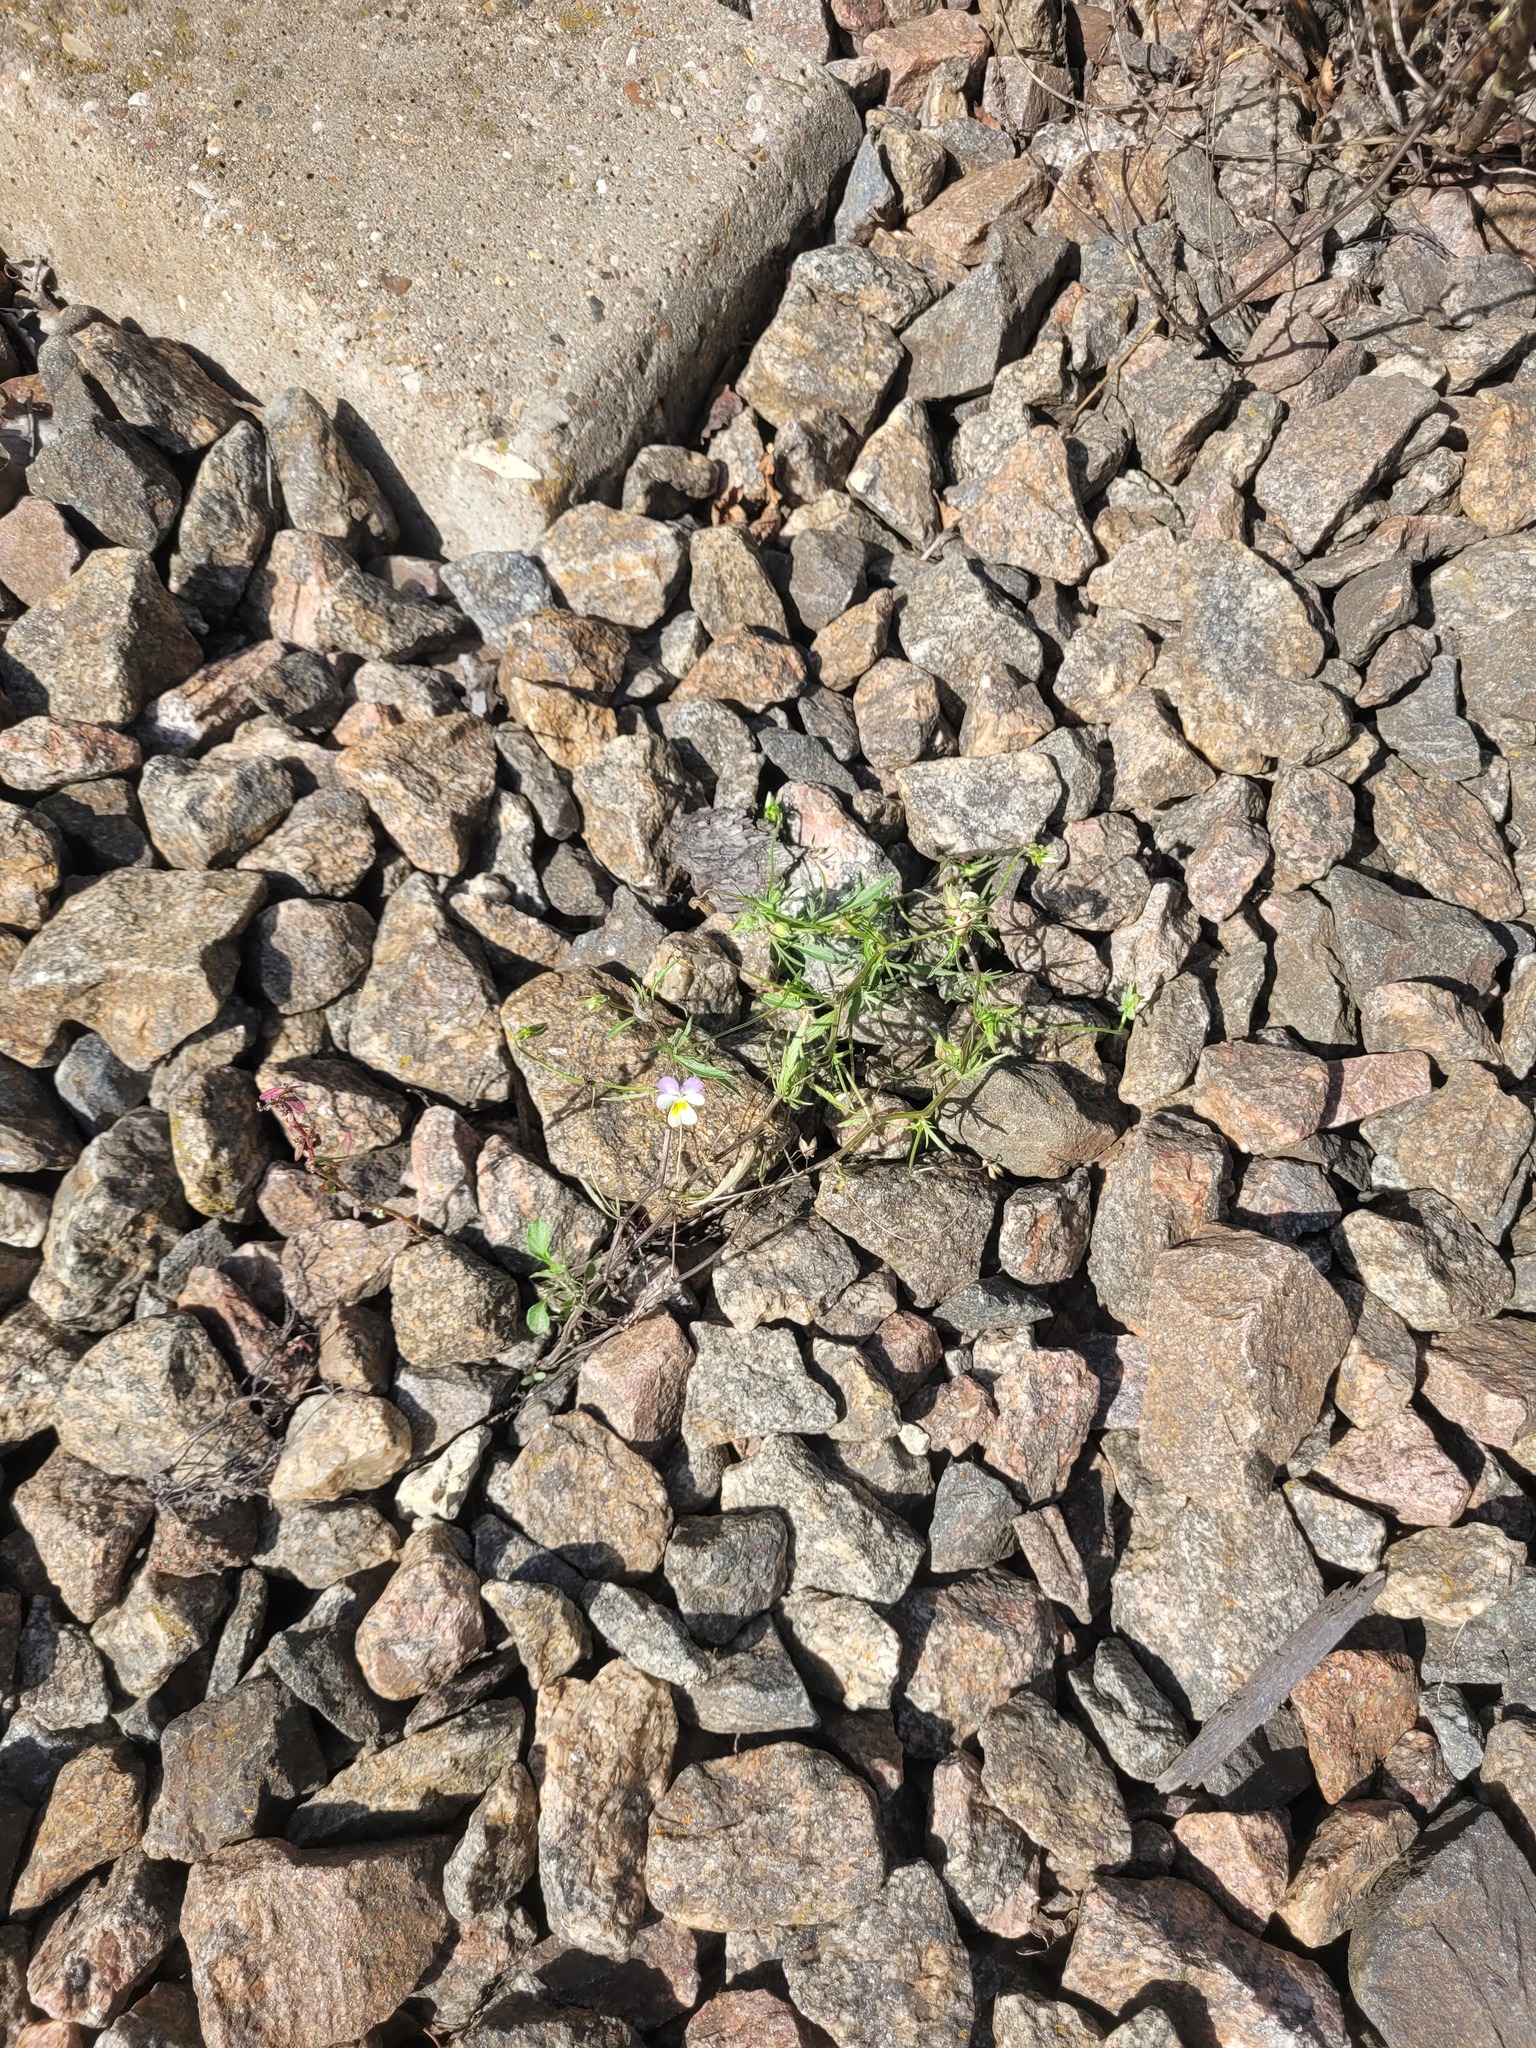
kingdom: Plantae
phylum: Tracheophyta
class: Magnoliopsida
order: Malpighiales
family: Violaceae
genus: Viola
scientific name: Viola contempta
